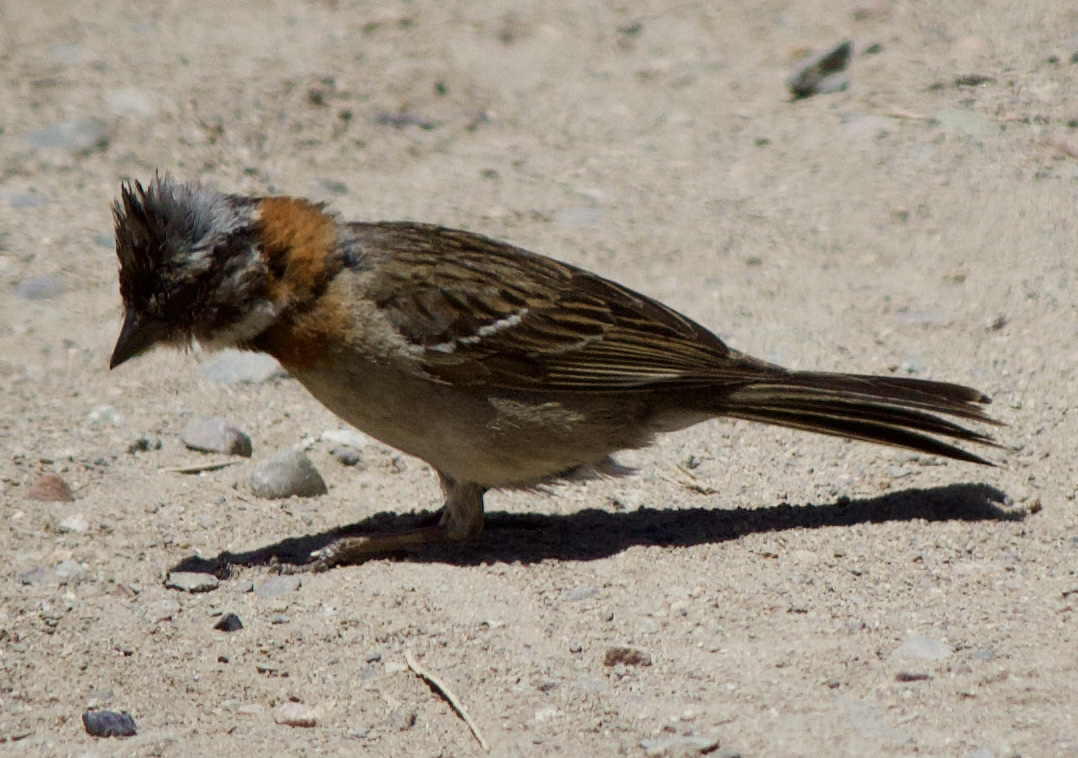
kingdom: Animalia
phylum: Chordata
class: Aves
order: Passeriformes
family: Passerellidae
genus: Zonotrichia
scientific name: Zonotrichia capensis
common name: Rufous-collared sparrow
